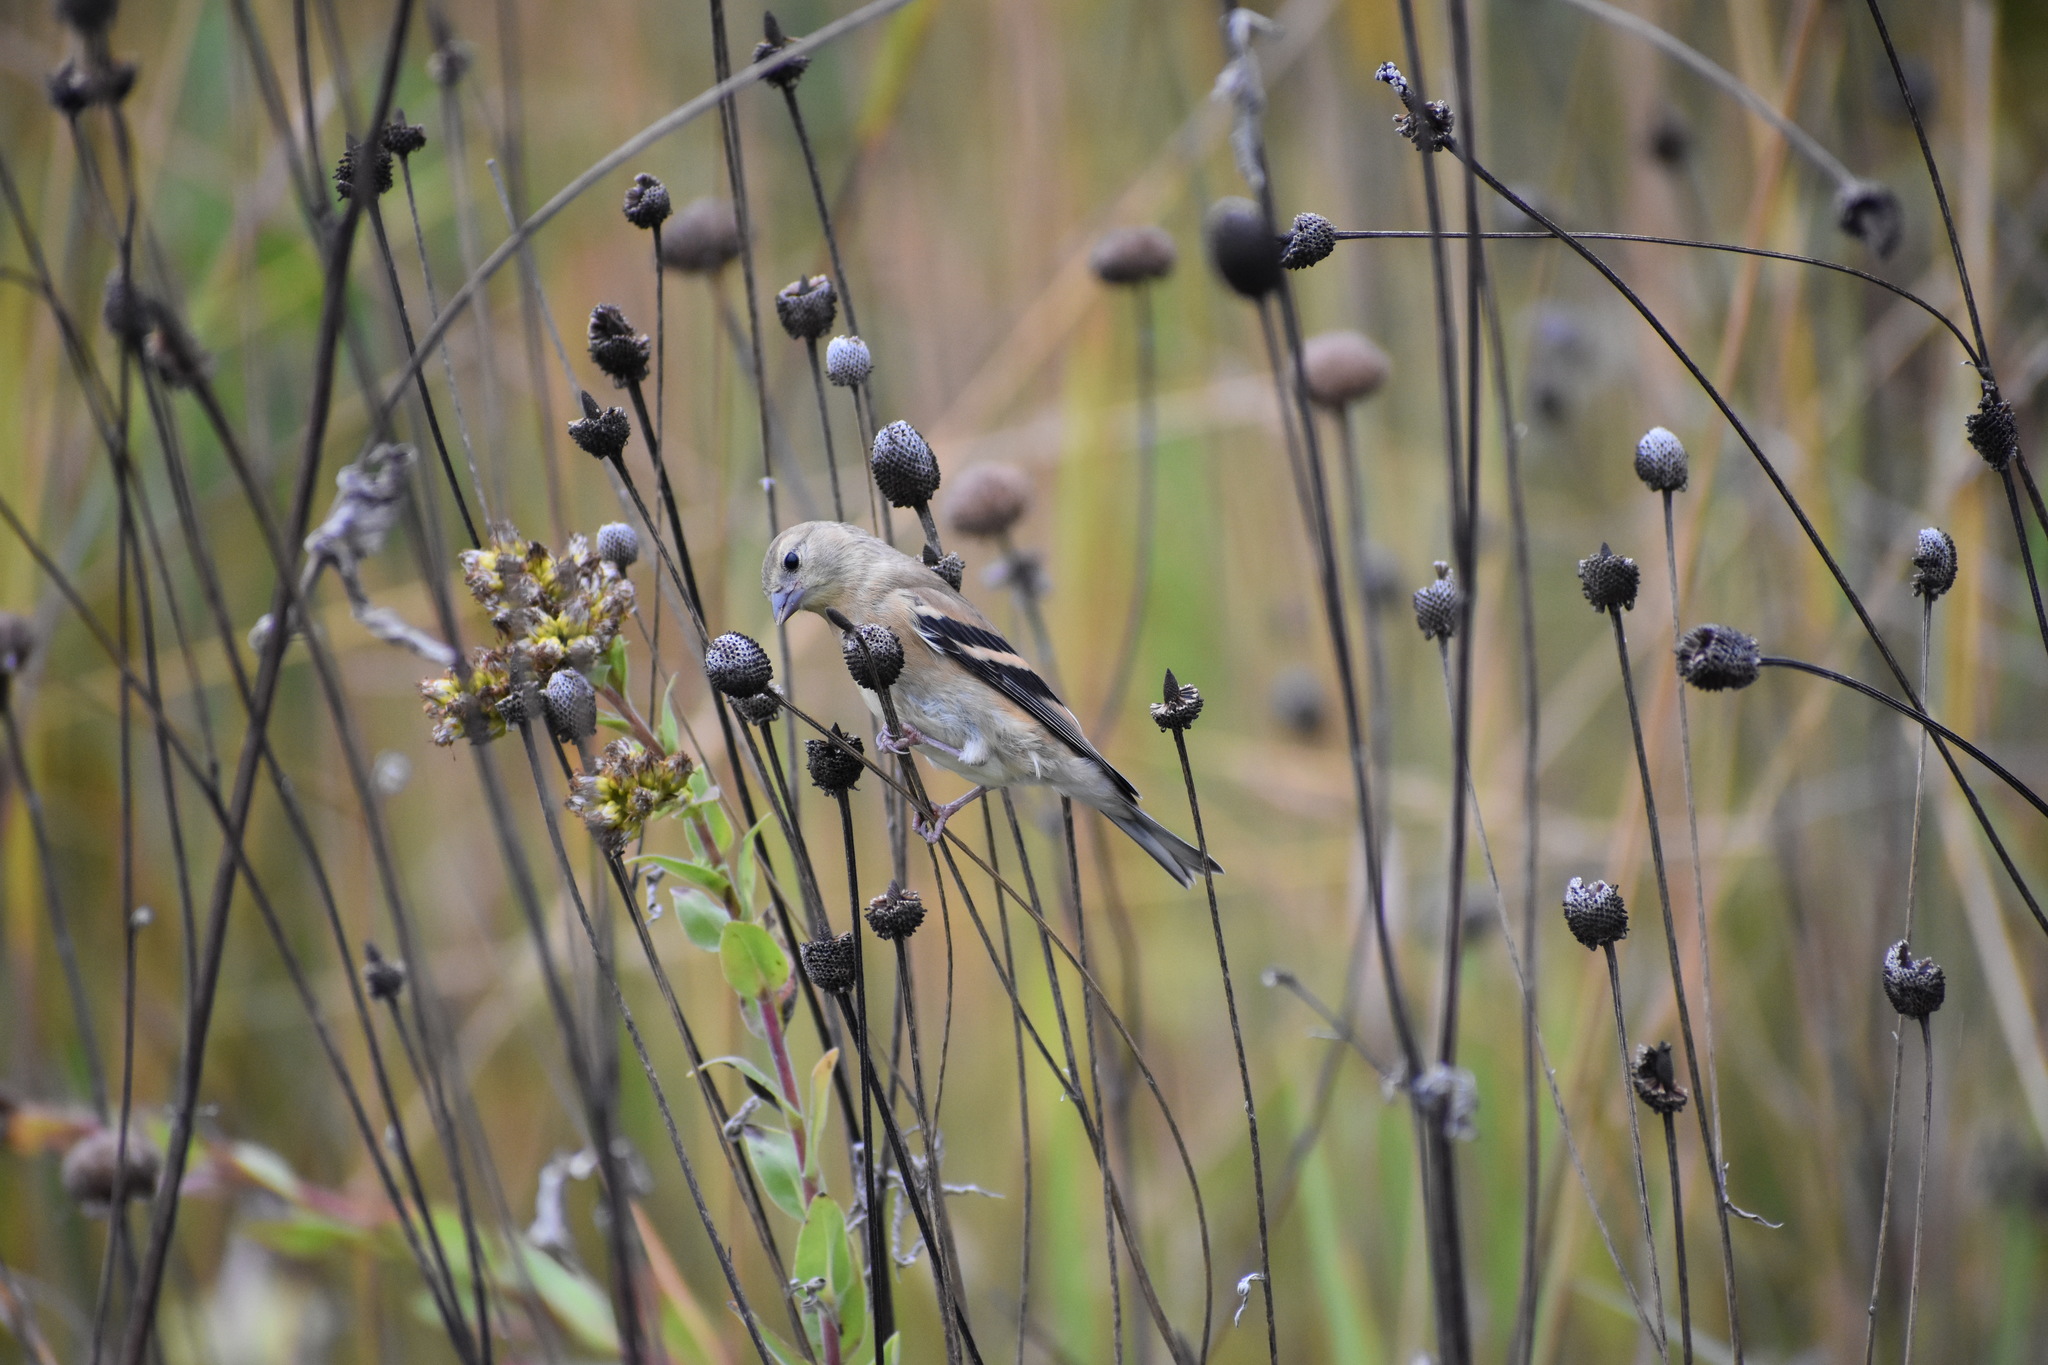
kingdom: Animalia
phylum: Chordata
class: Aves
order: Passeriformes
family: Fringillidae
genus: Spinus
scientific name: Spinus tristis
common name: American goldfinch
